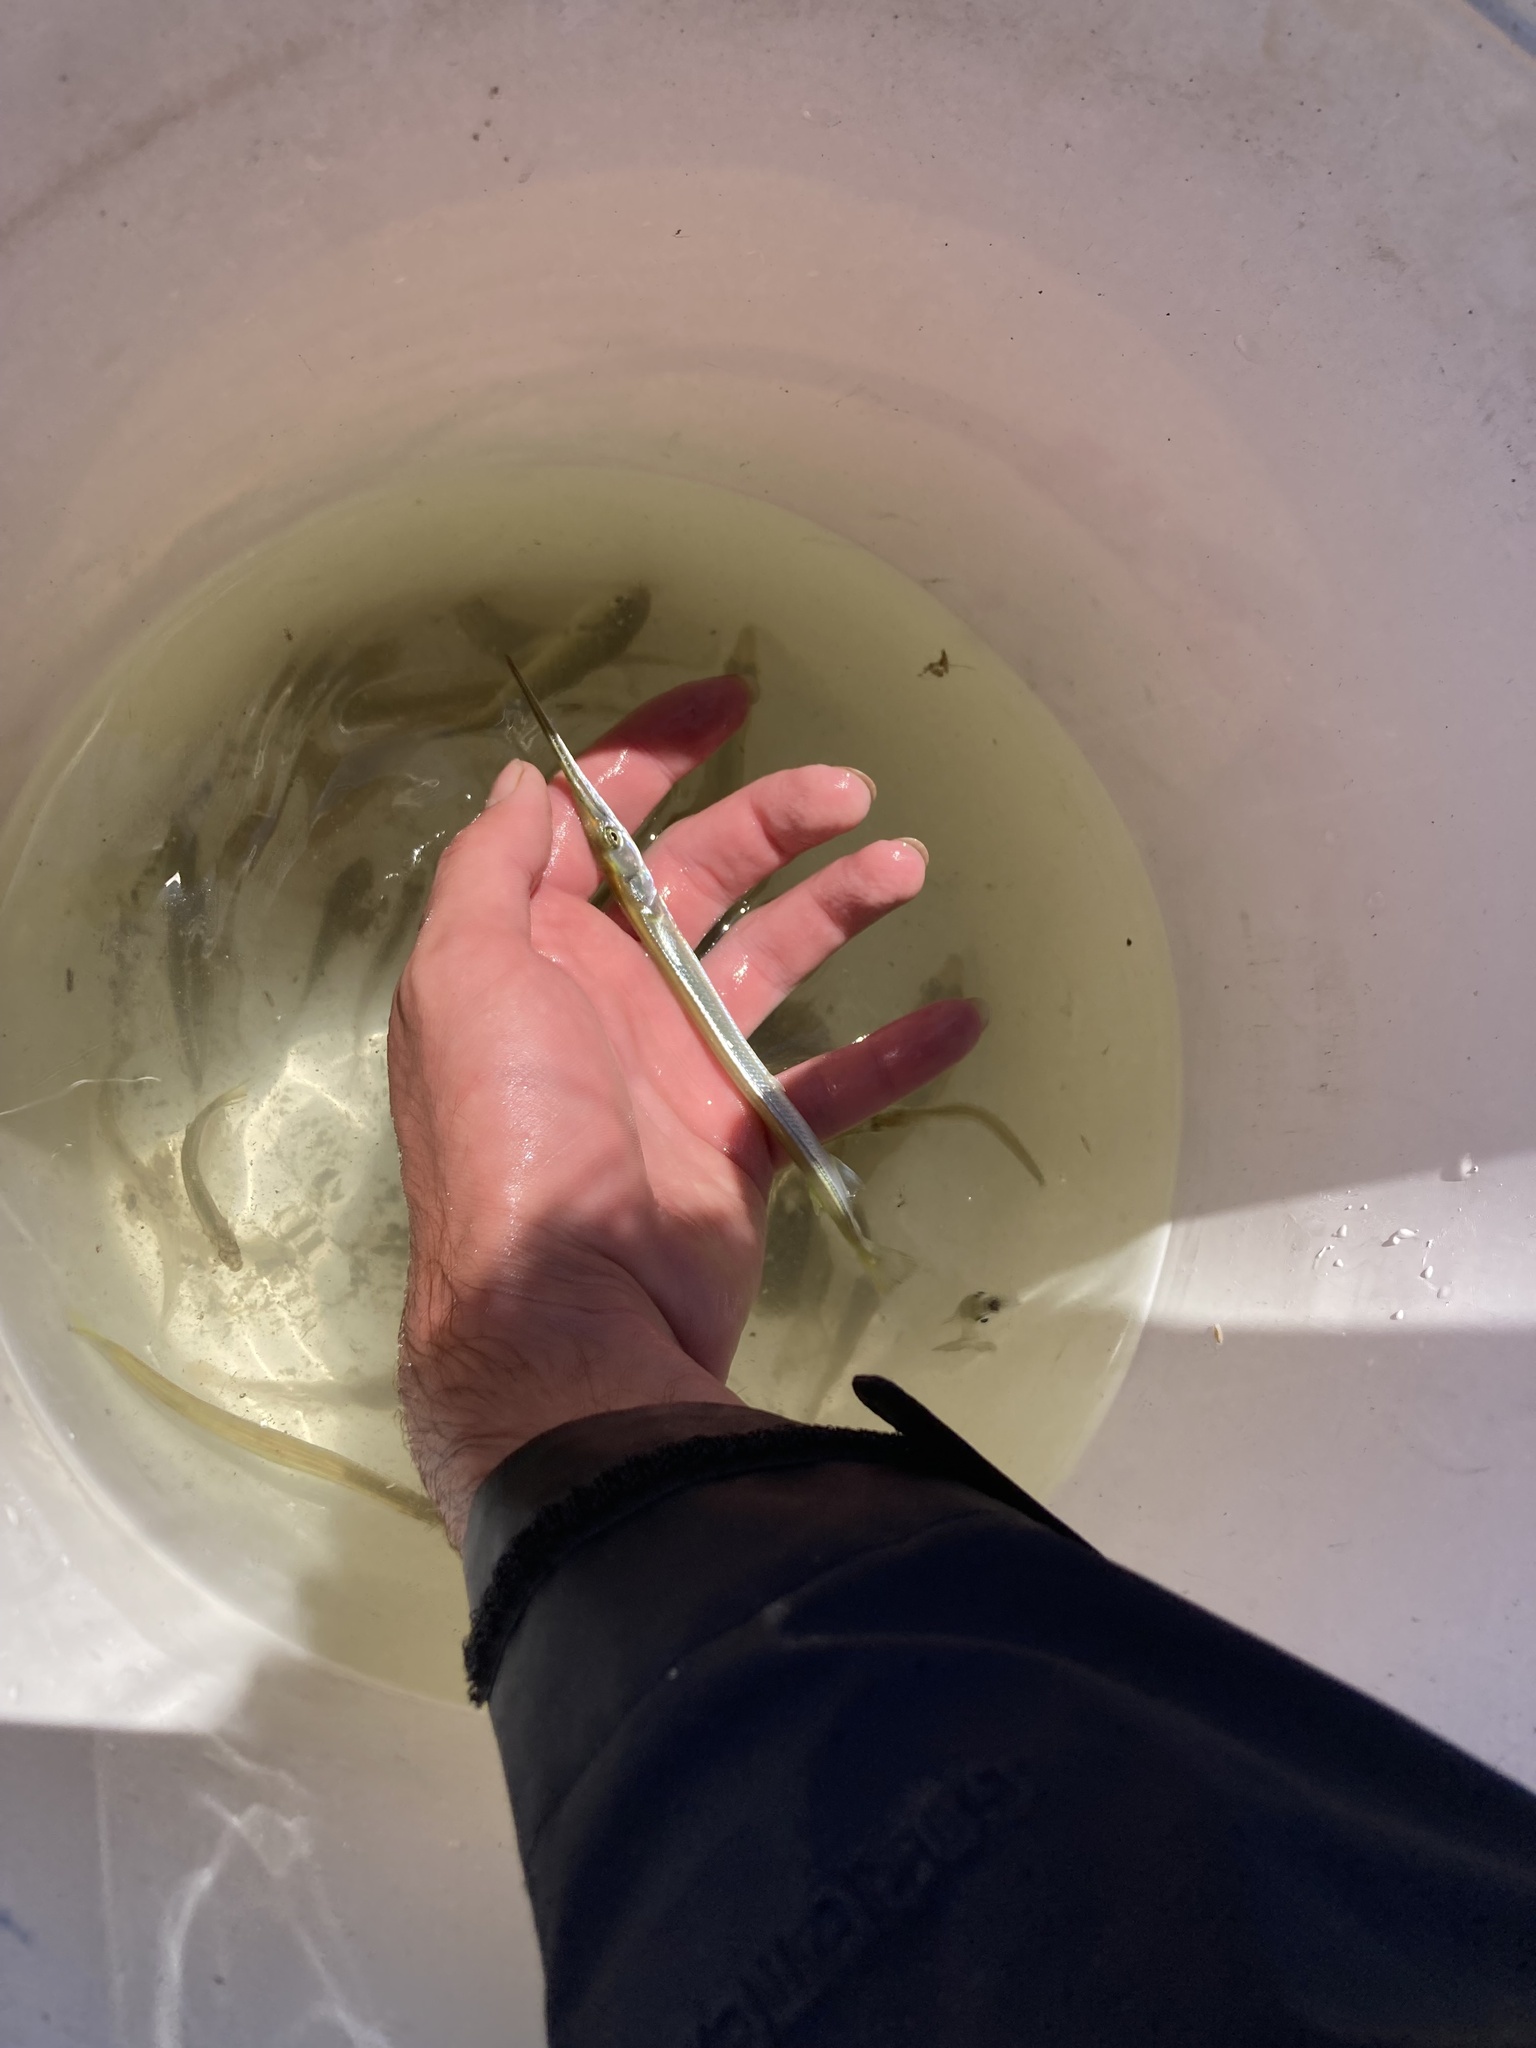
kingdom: Animalia
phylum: Chordata
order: Beloniformes
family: Belonidae
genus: Strongylura
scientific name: Strongylura marina
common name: Atlantic needlefish
